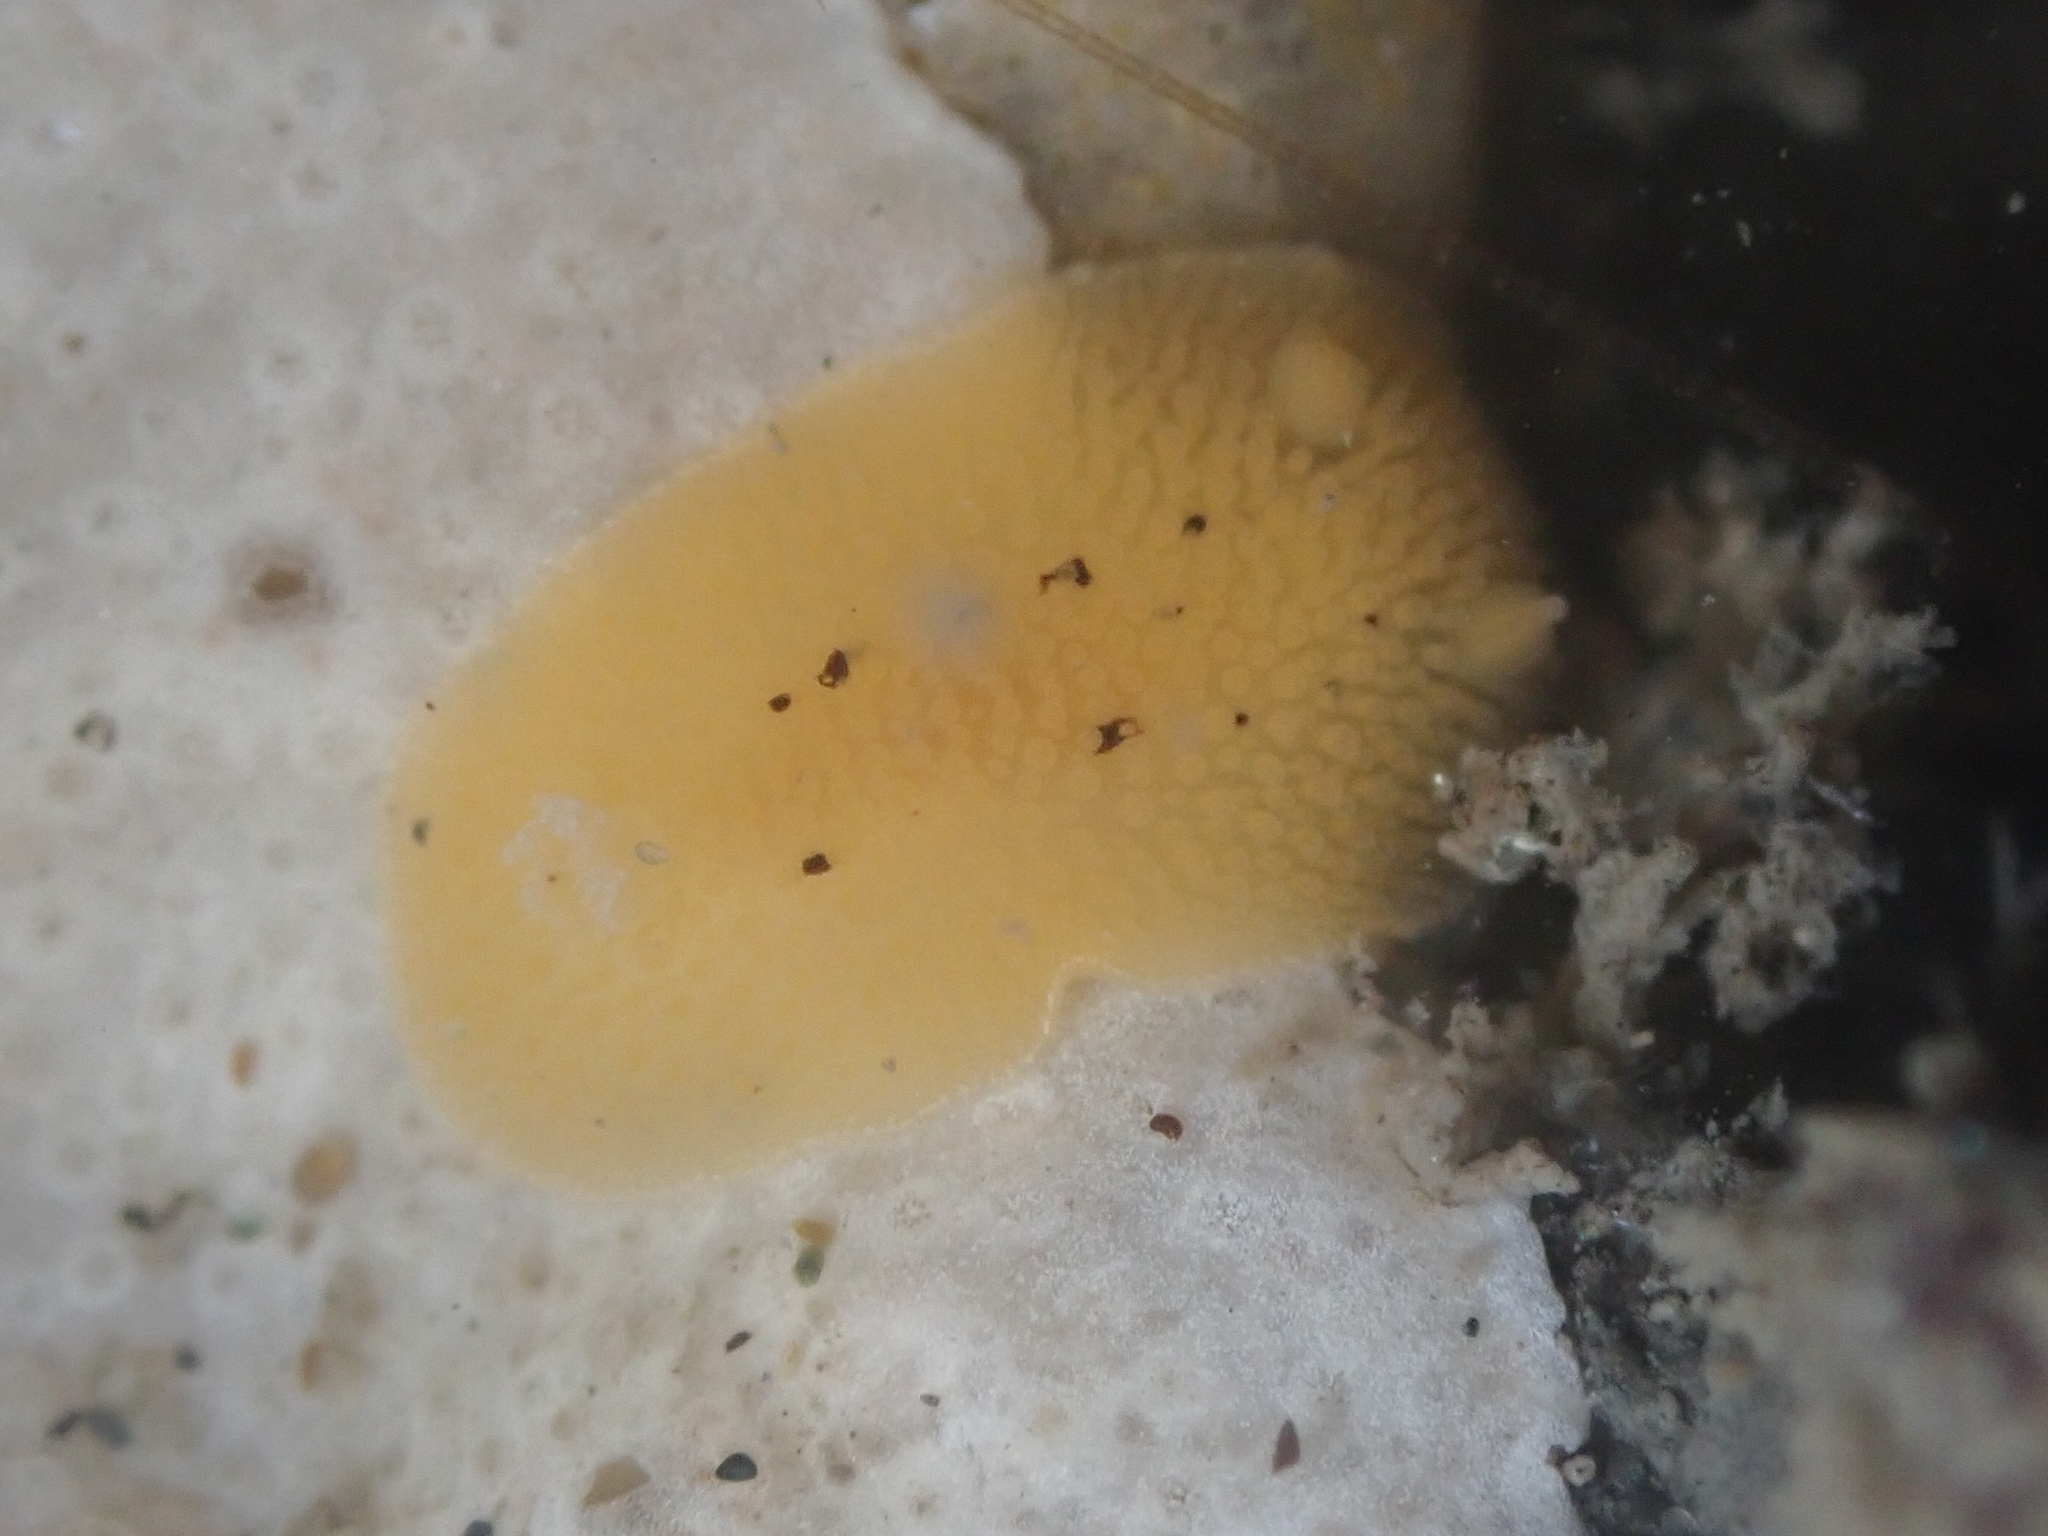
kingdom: Animalia
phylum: Mollusca
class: Gastropoda
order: Nudibranchia
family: Discodorididae
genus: Peltodoris
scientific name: Peltodoris nobilis
